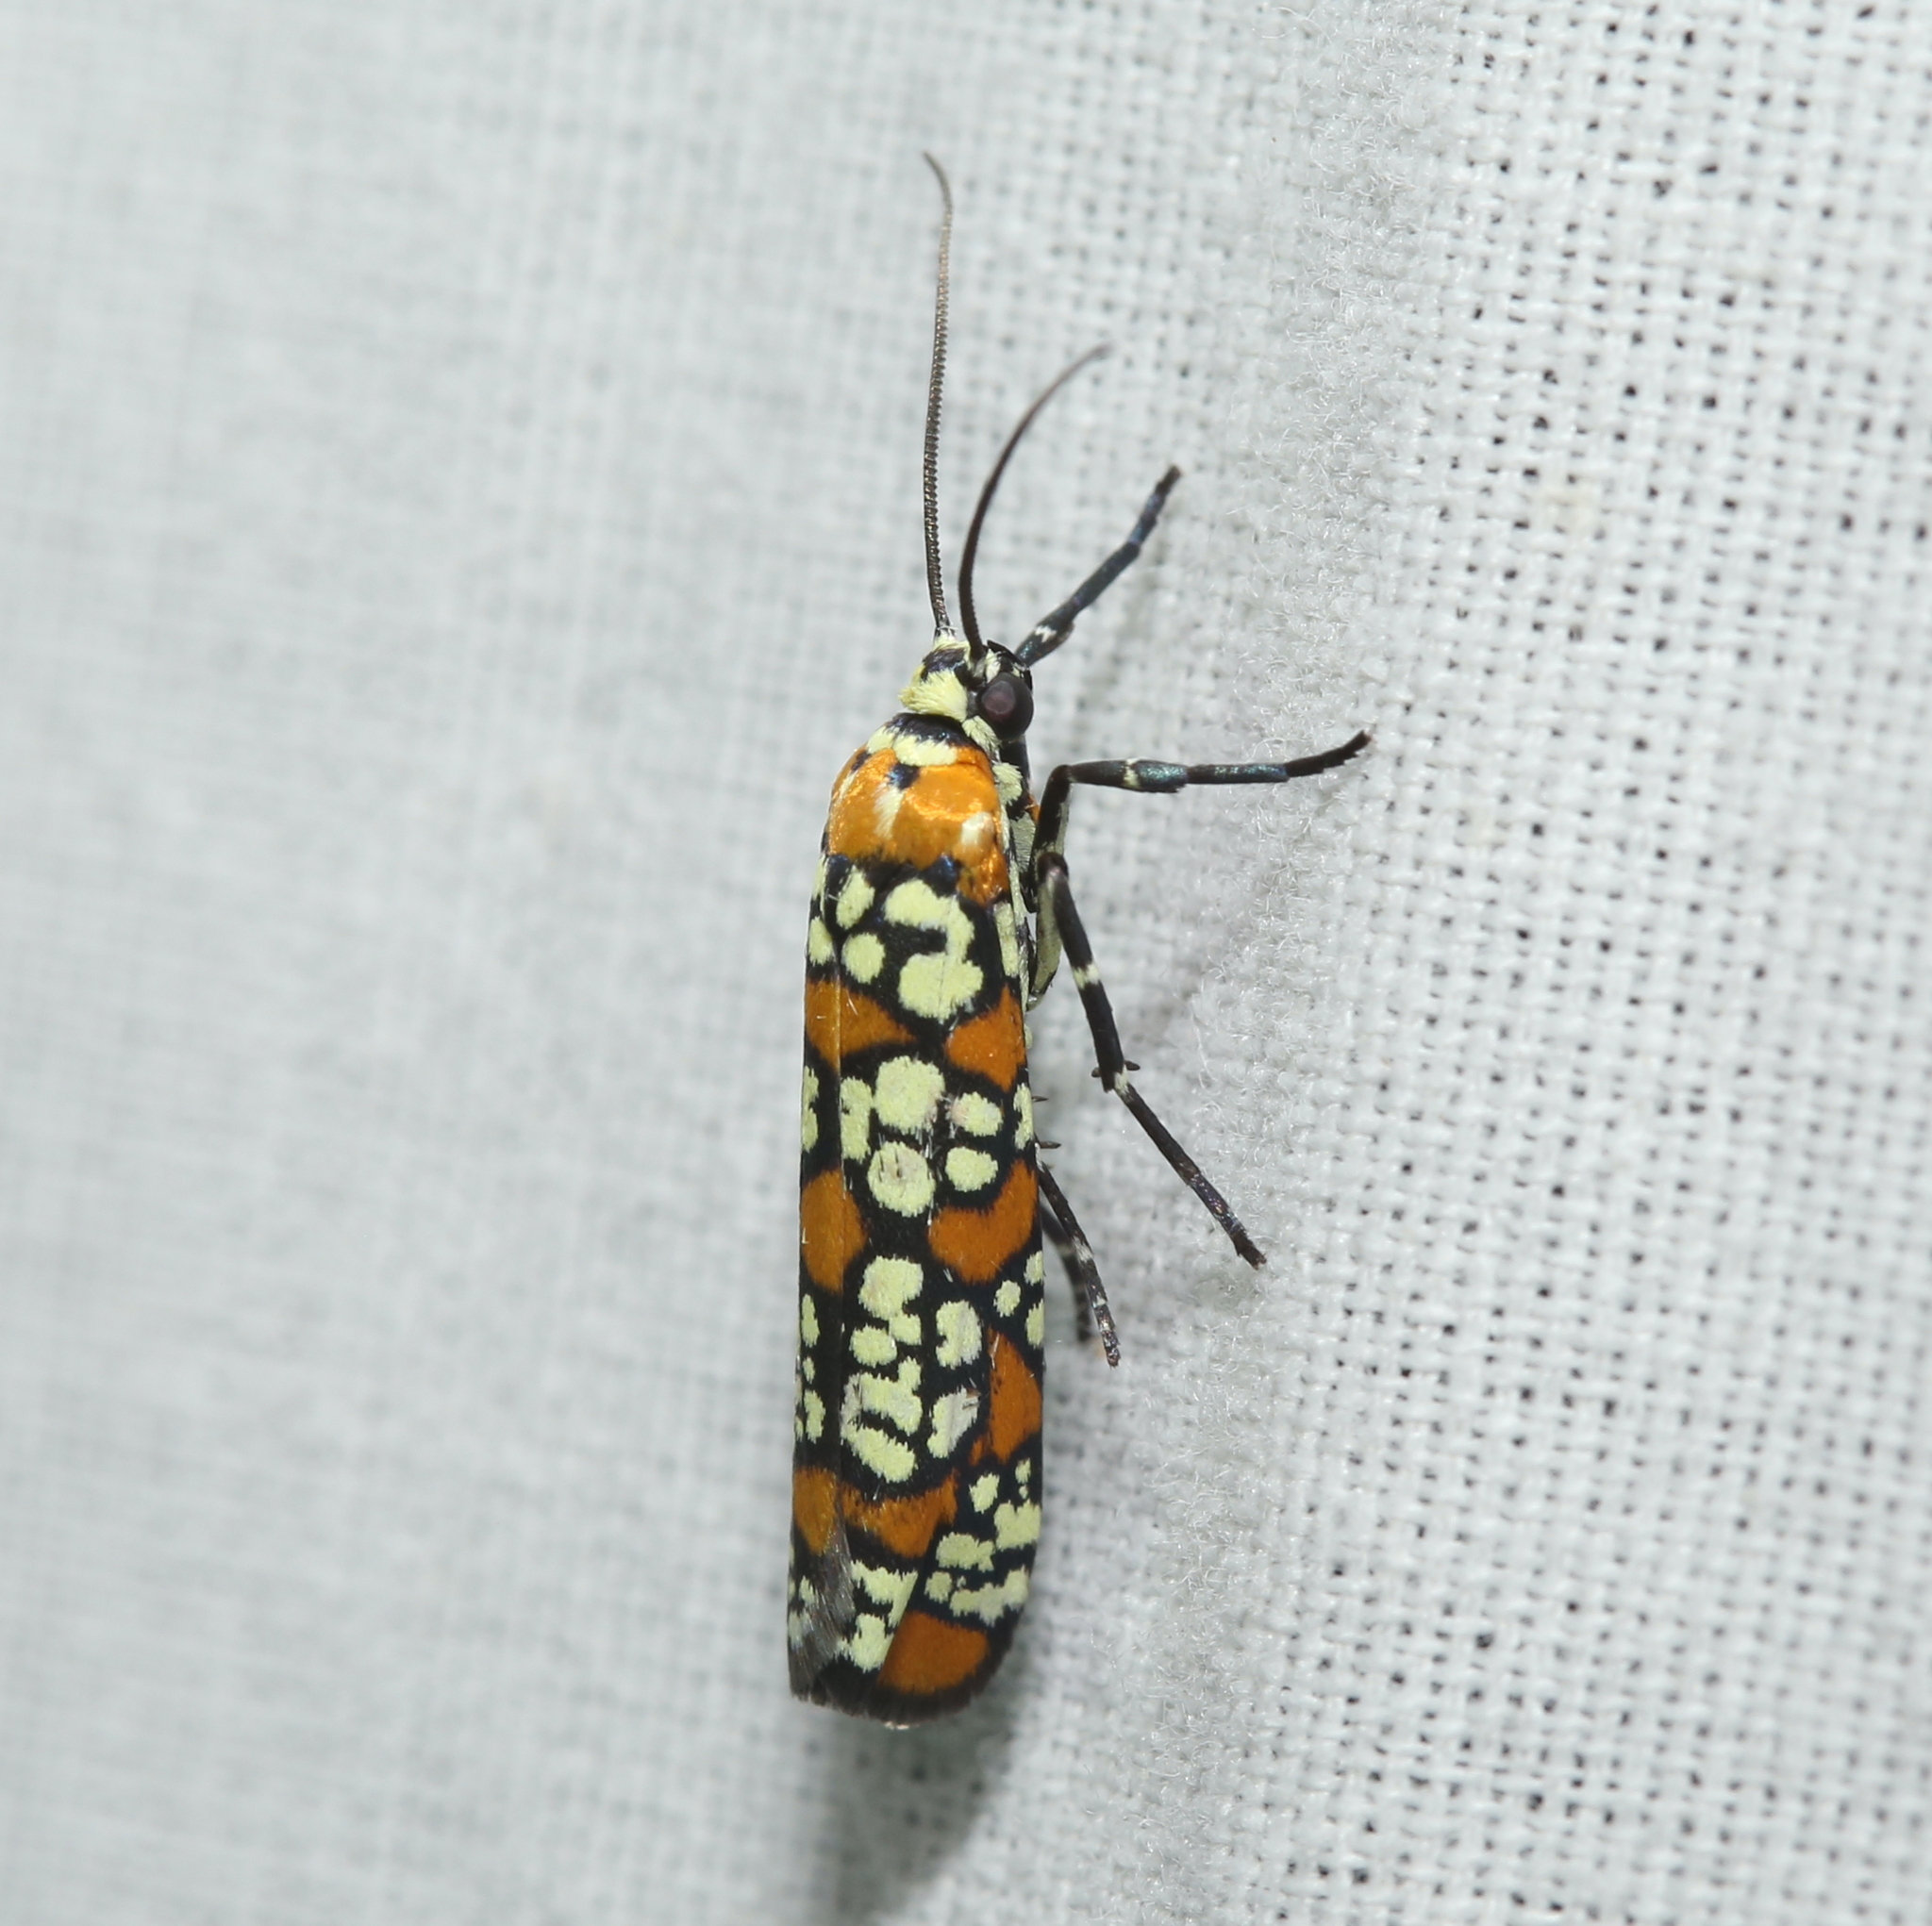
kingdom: Animalia
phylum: Arthropoda
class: Insecta
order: Lepidoptera
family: Attevidae
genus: Atteva
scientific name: Atteva punctella
